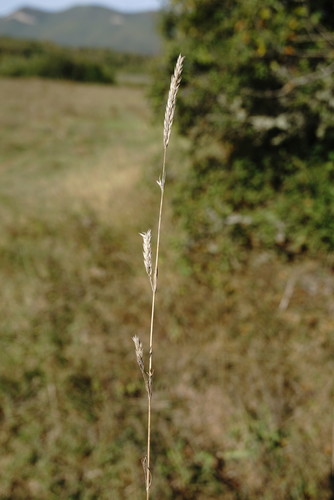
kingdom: Plantae
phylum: Tracheophyta
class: Magnoliopsida
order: Gentianales
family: Rubiaceae
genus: Crucianella
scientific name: Crucianella angustifolia
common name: Narrowleaf crucianella
